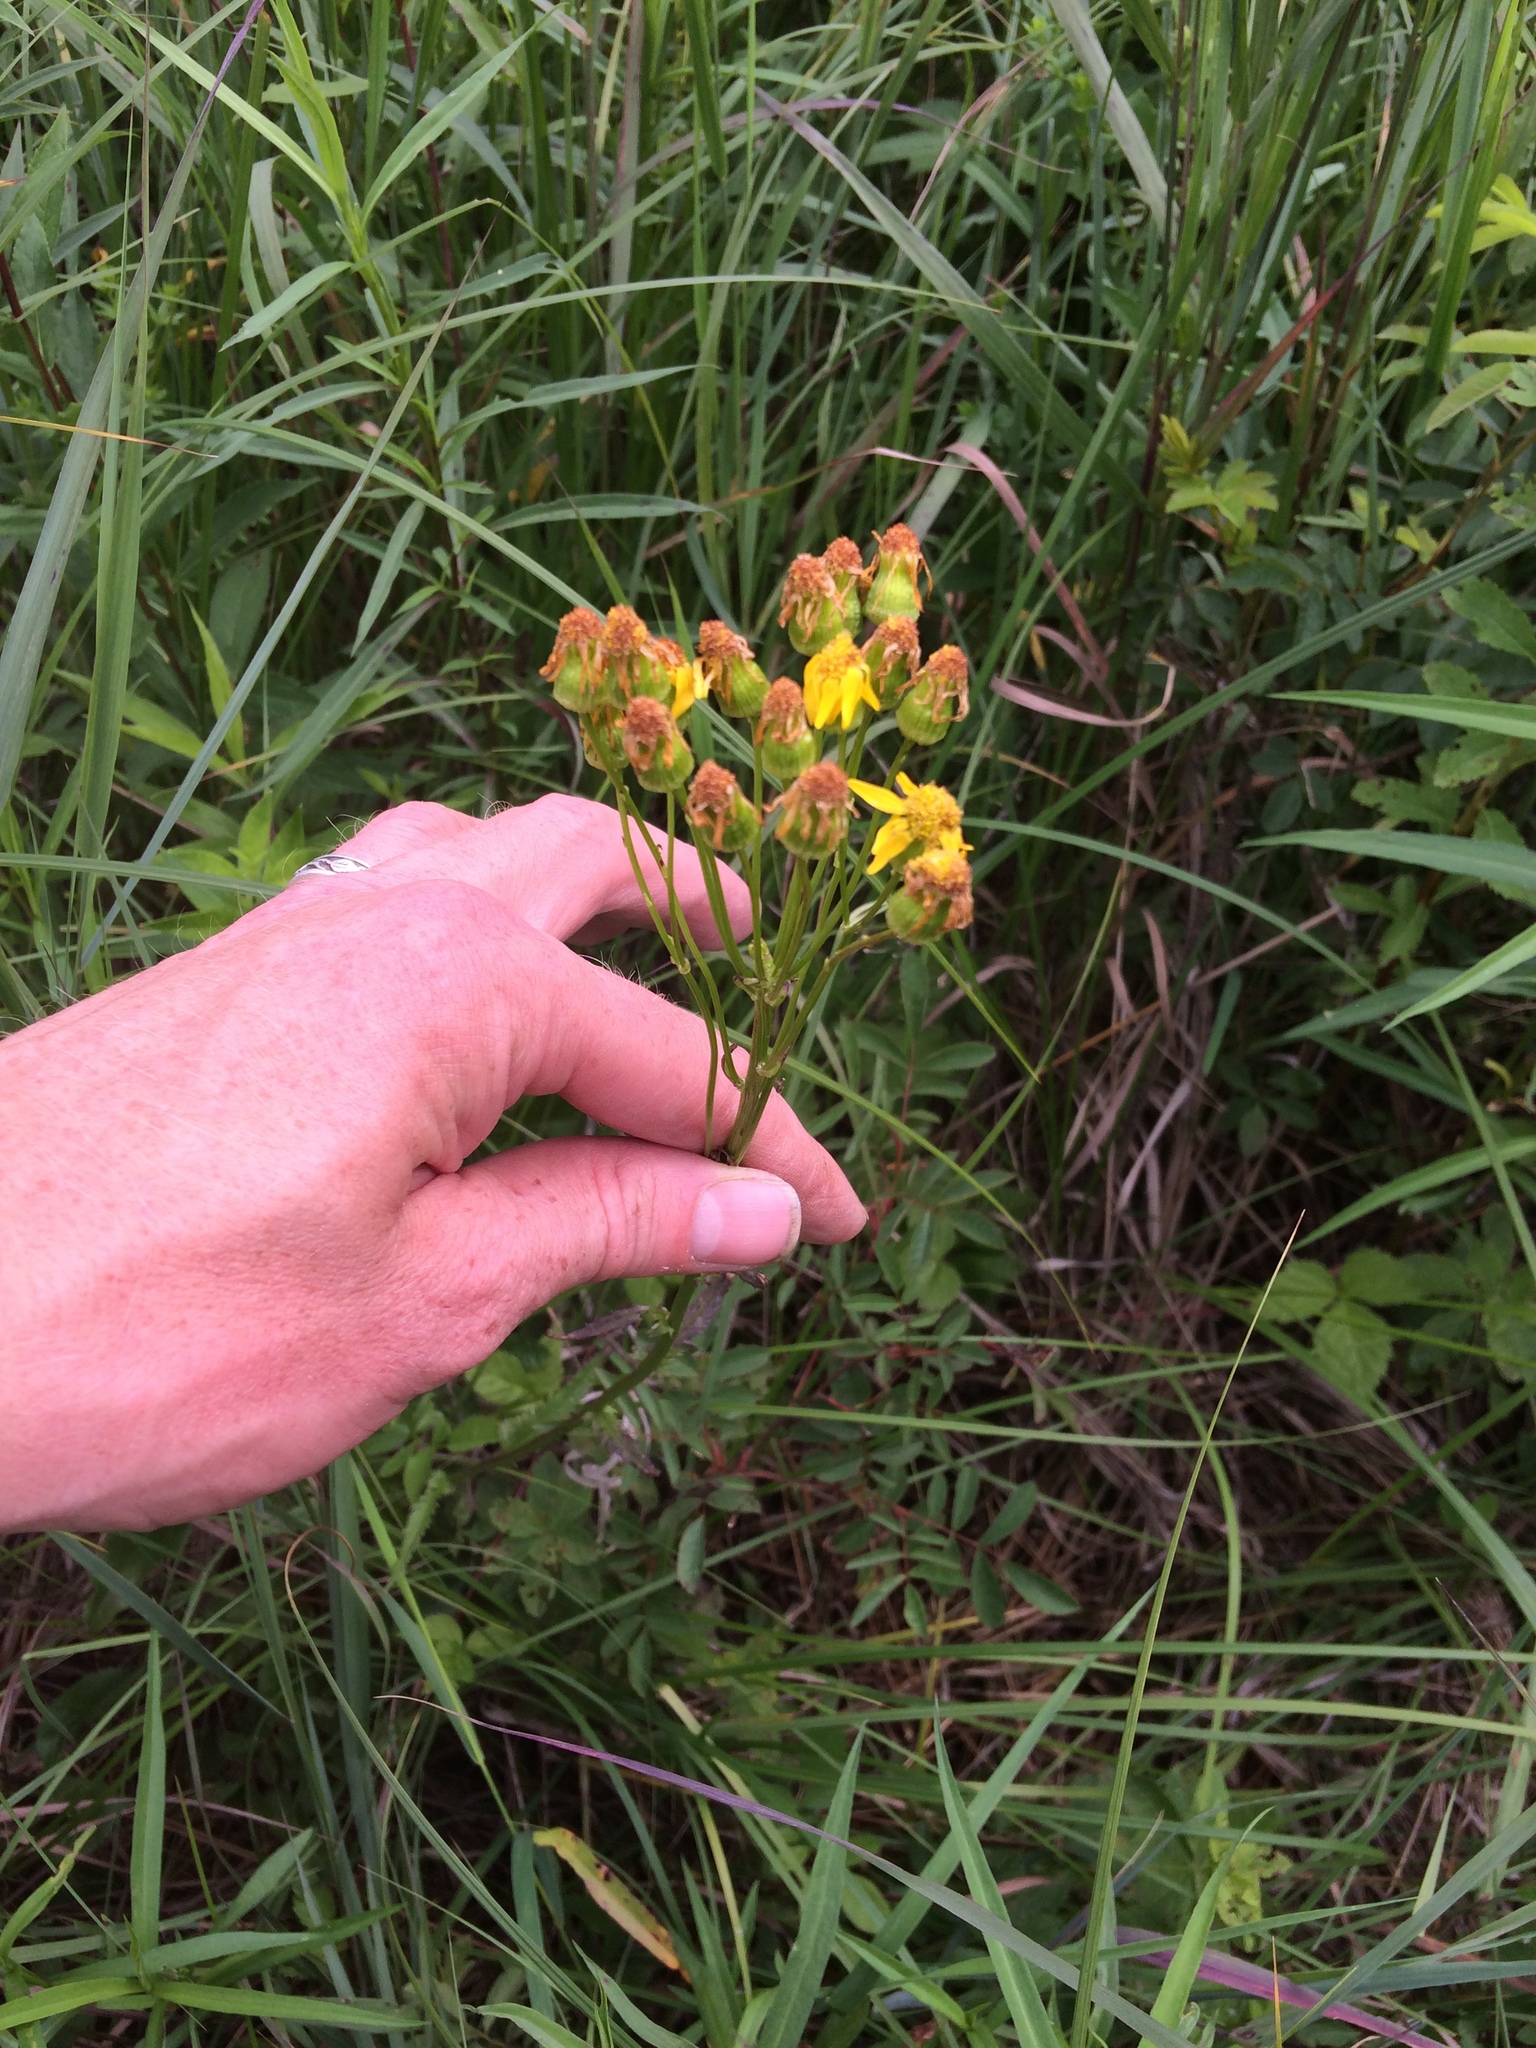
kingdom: Plantae
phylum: Tracheophyta
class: Magnoliopsida
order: Asterales
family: Asteraceae
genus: Packera
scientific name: Packera schweinitziana
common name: Schweinitz's ragwort
